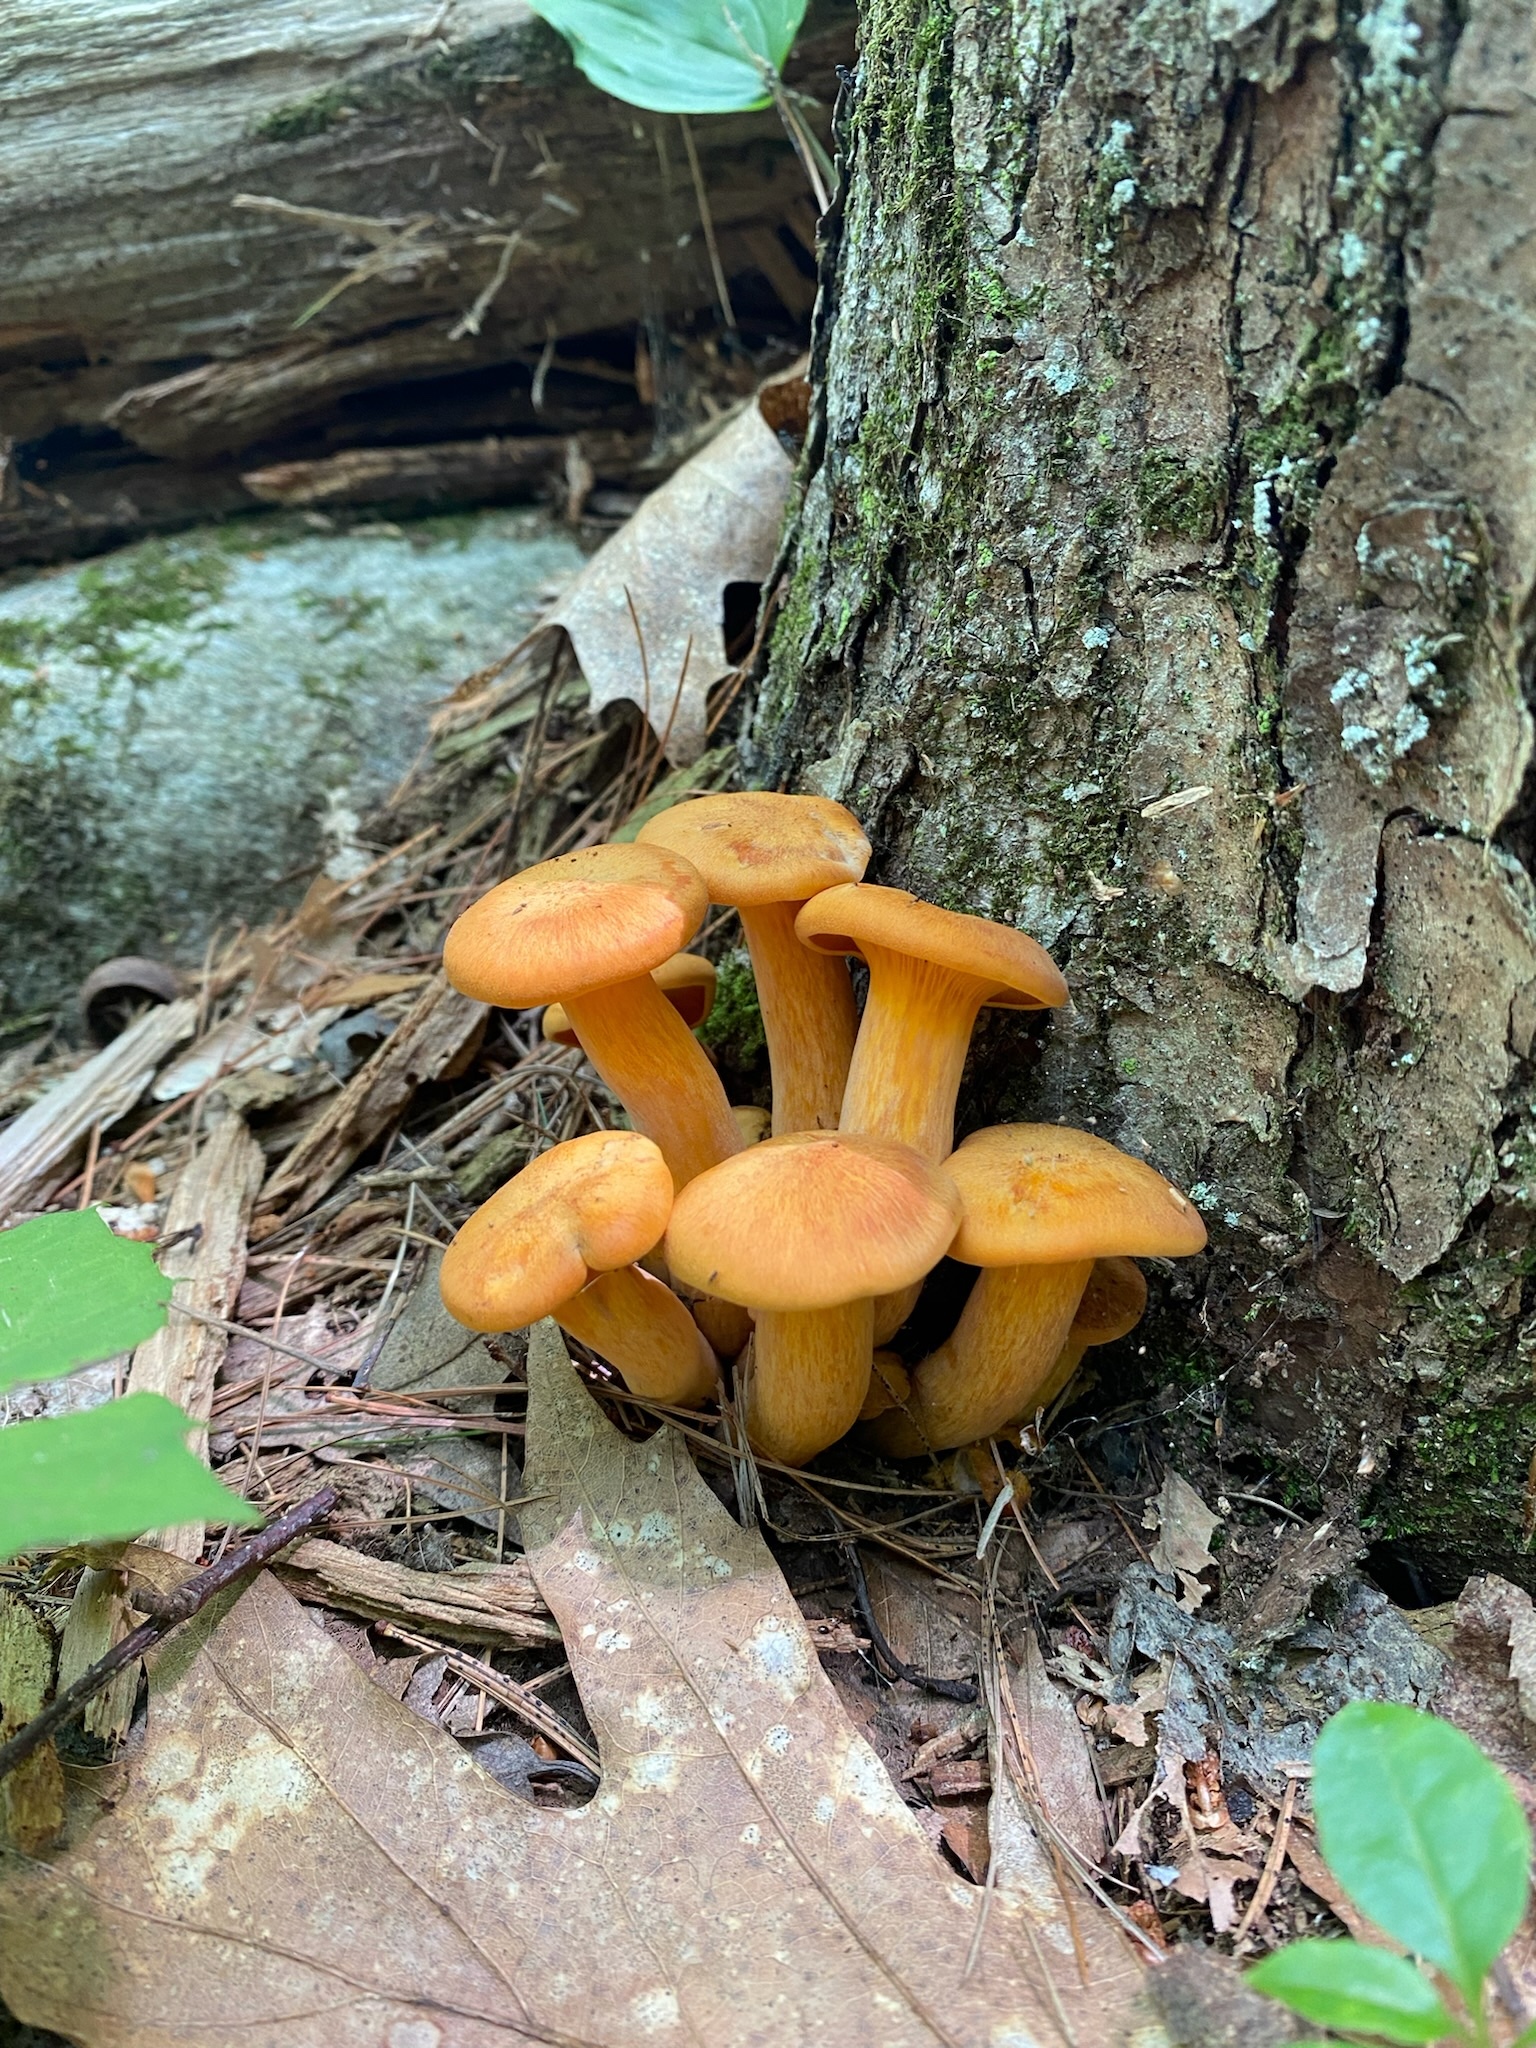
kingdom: Fungi
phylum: Basidiomycota
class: Agaricomycetes
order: Agaricales
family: Omphalotaceae
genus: Omphalotus
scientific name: Omphalotus illudens
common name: Jack o lantern
